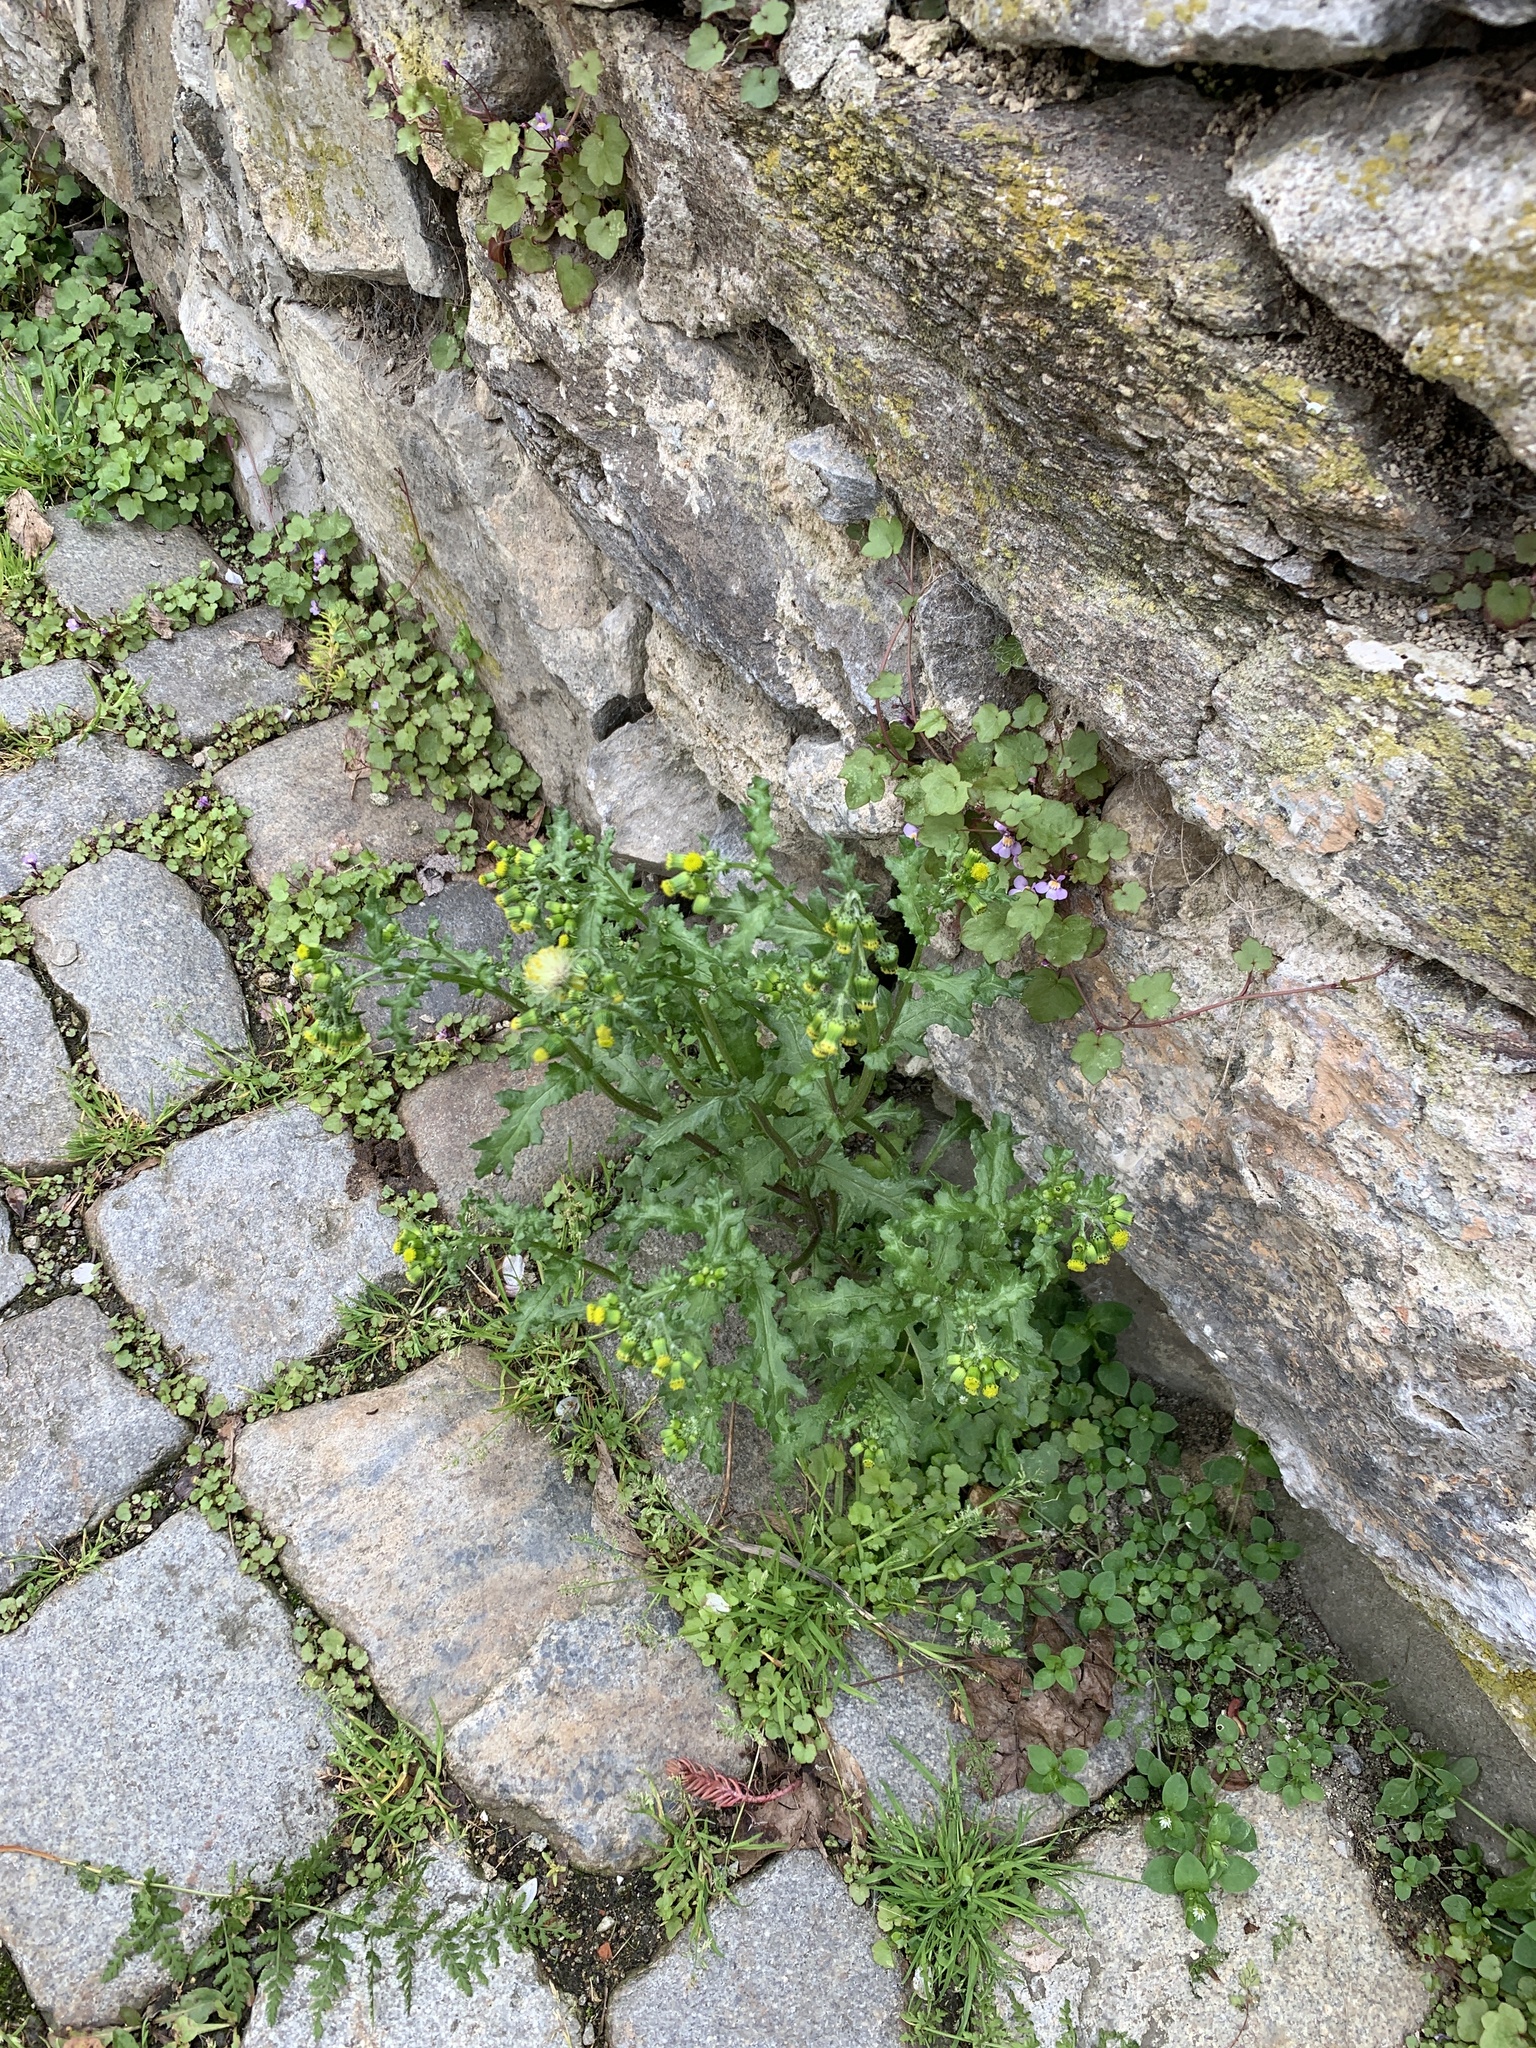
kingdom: Plantae
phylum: Tracheophyta
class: Magnoliopsida
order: Asterales
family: Asteraceae
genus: Senecio
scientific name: Senecio vulgaris
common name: Old-man-in-the-spring
